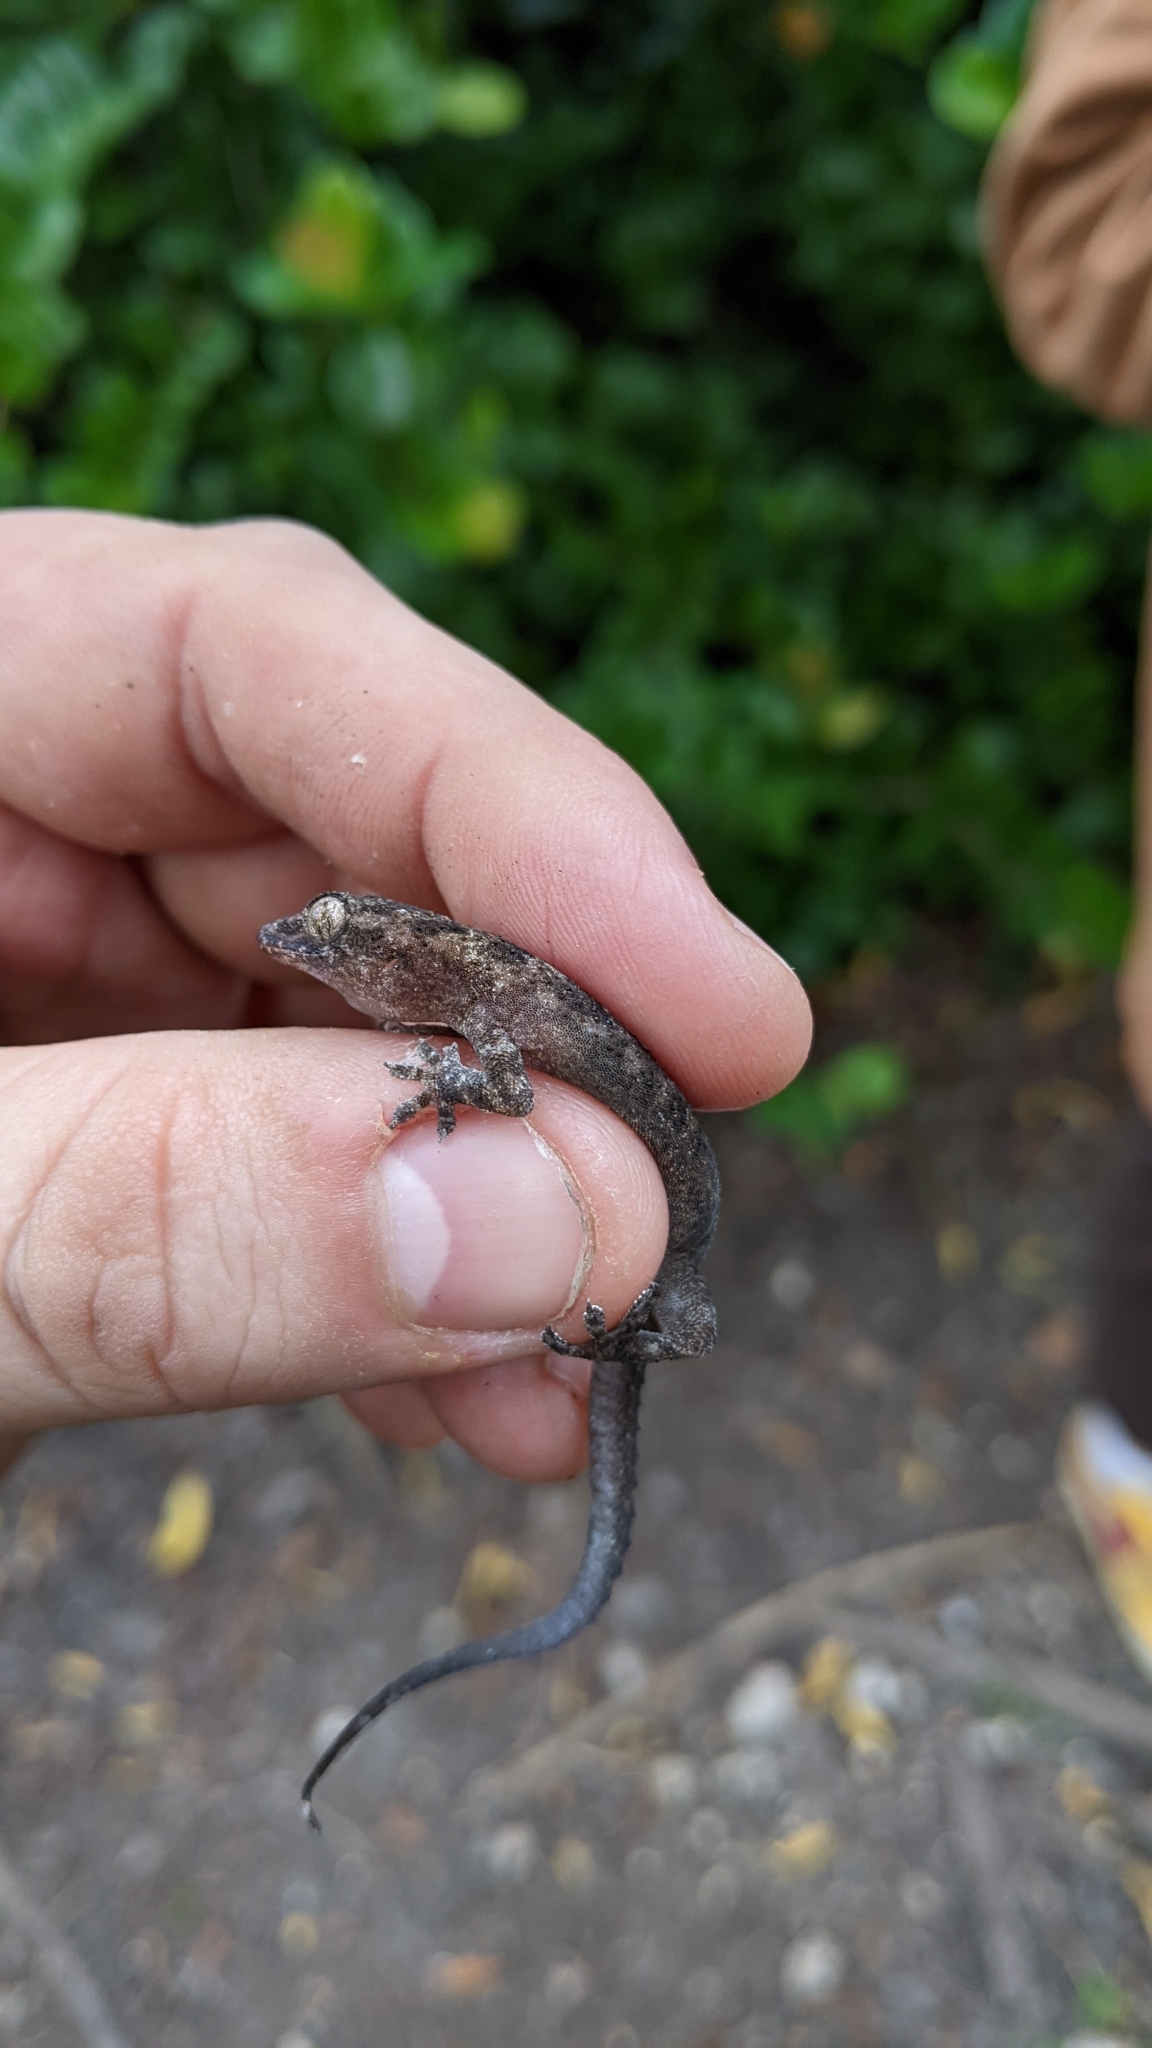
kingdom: Animalia
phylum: Chordata
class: Squamata
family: Gekkonidae
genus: Hemidactylus
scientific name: Hemidactylus mabouia
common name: House gecko
